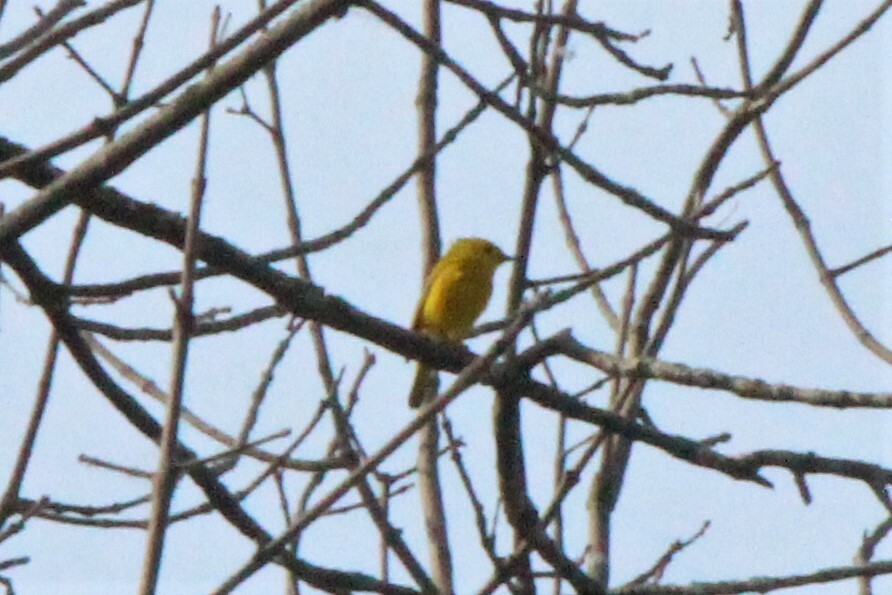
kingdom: Animalia
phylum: Chordata
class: Aves
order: Passeriformes
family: Parulidae
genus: Setophaga
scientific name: Setophaga petechia
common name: Yellow warbler
